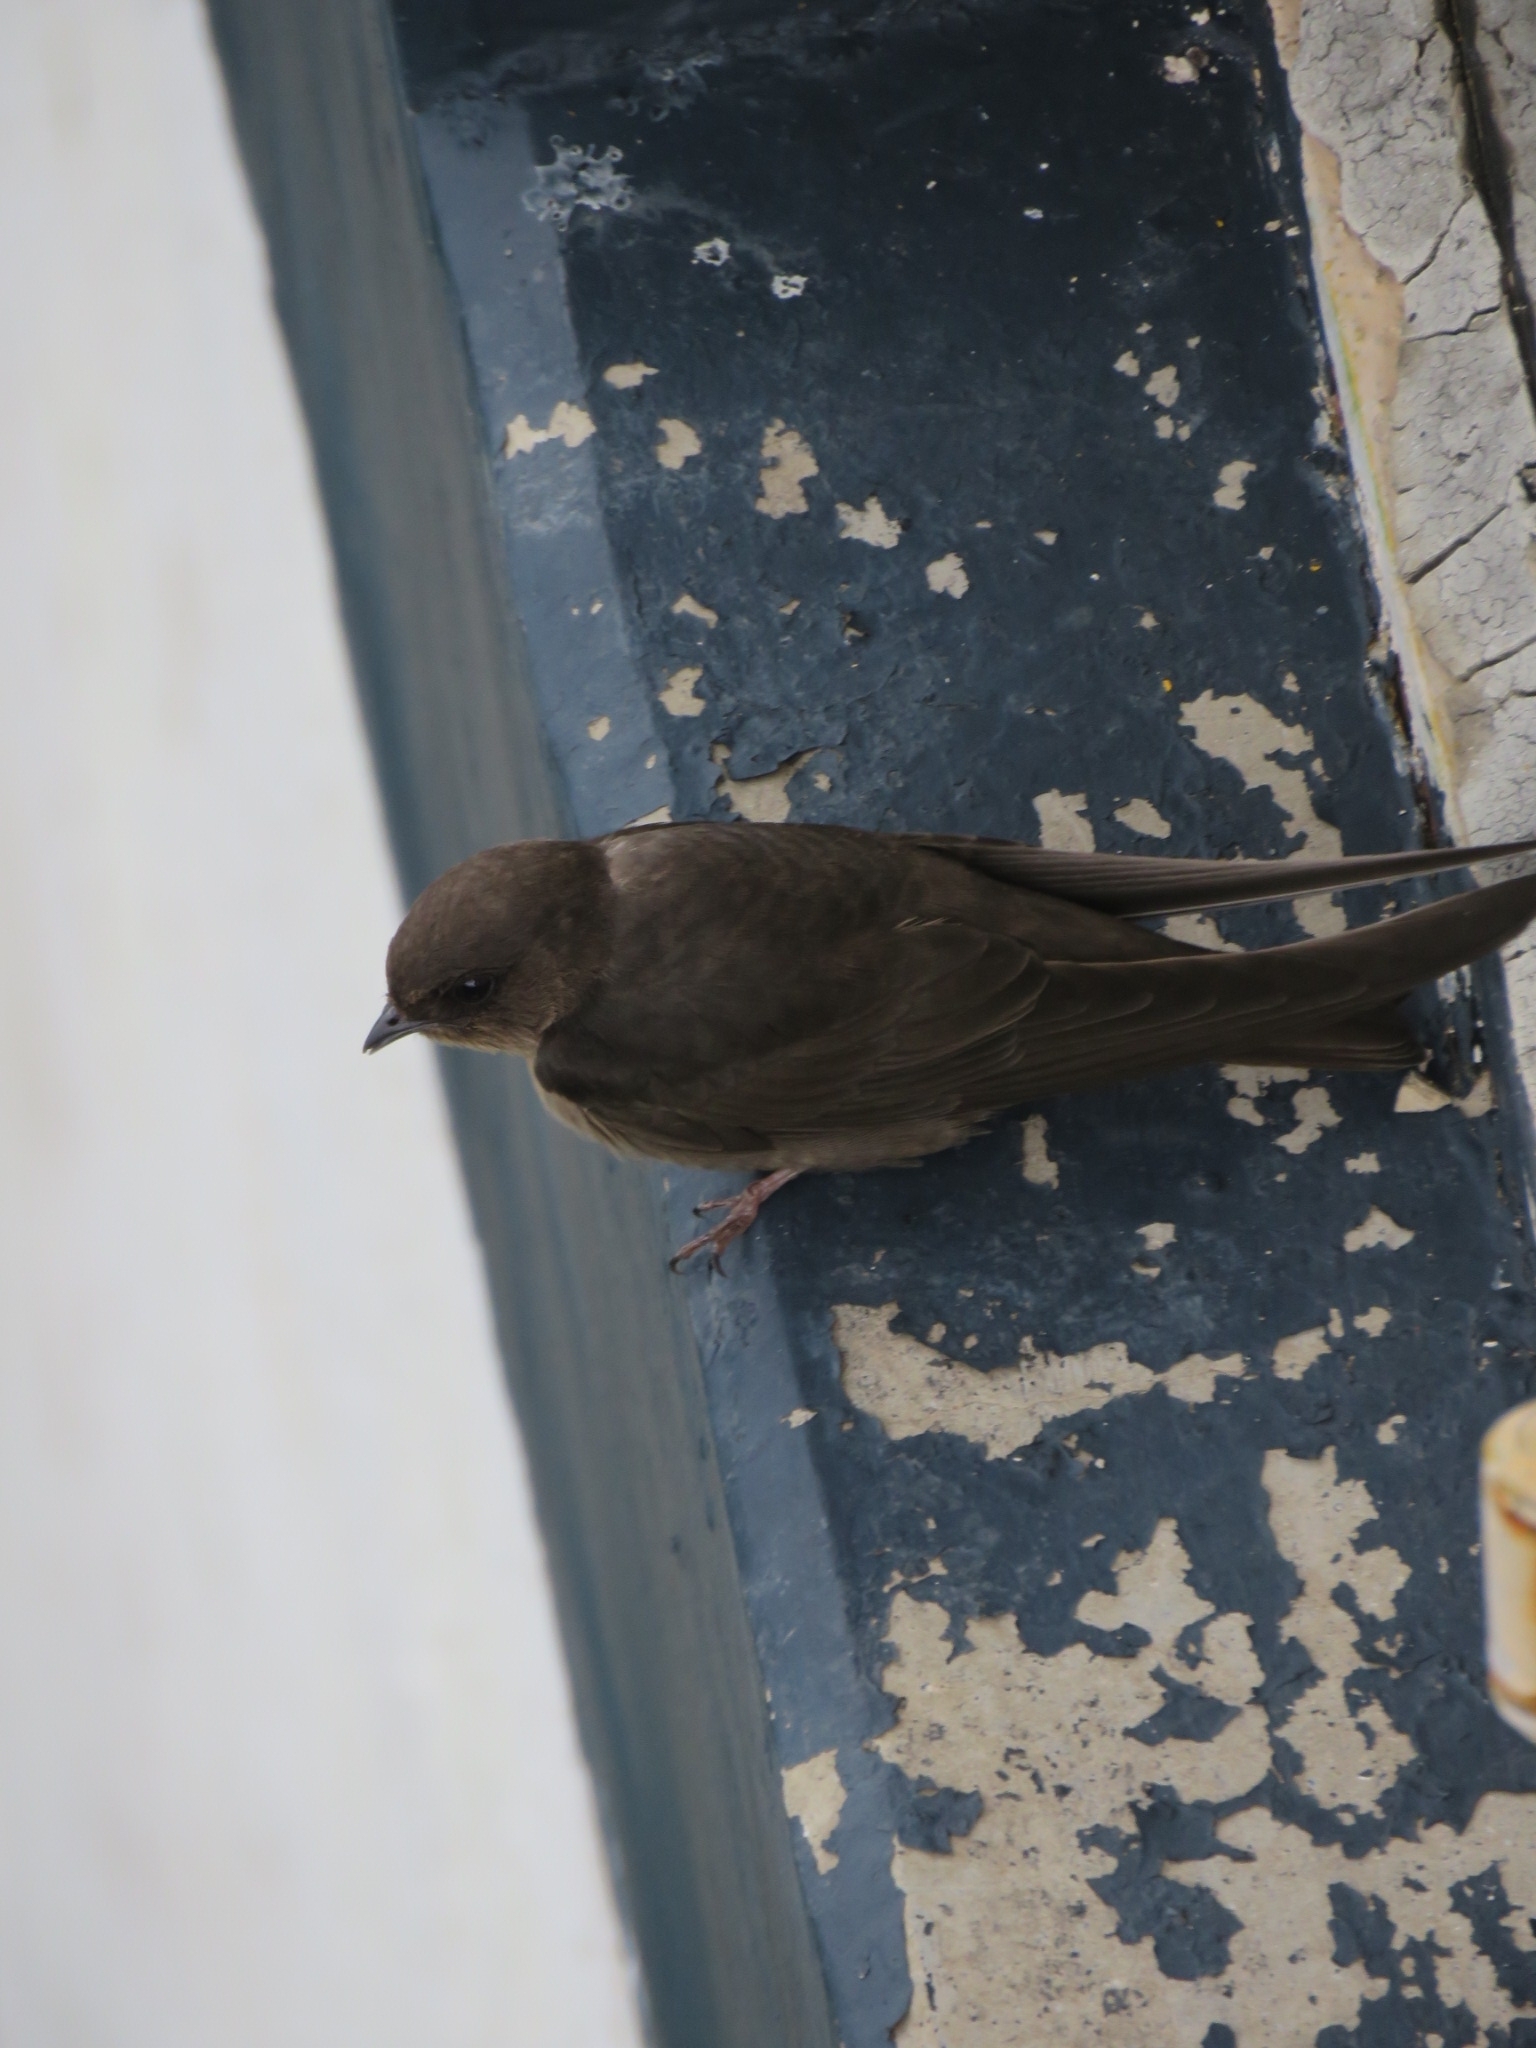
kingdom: Animalia
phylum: Chordata
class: Aves
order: Passeriformes
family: Hirundinidae
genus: Ptyonoprogne
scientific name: Ptyonoprogne concolor
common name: Dusky crag-martin
